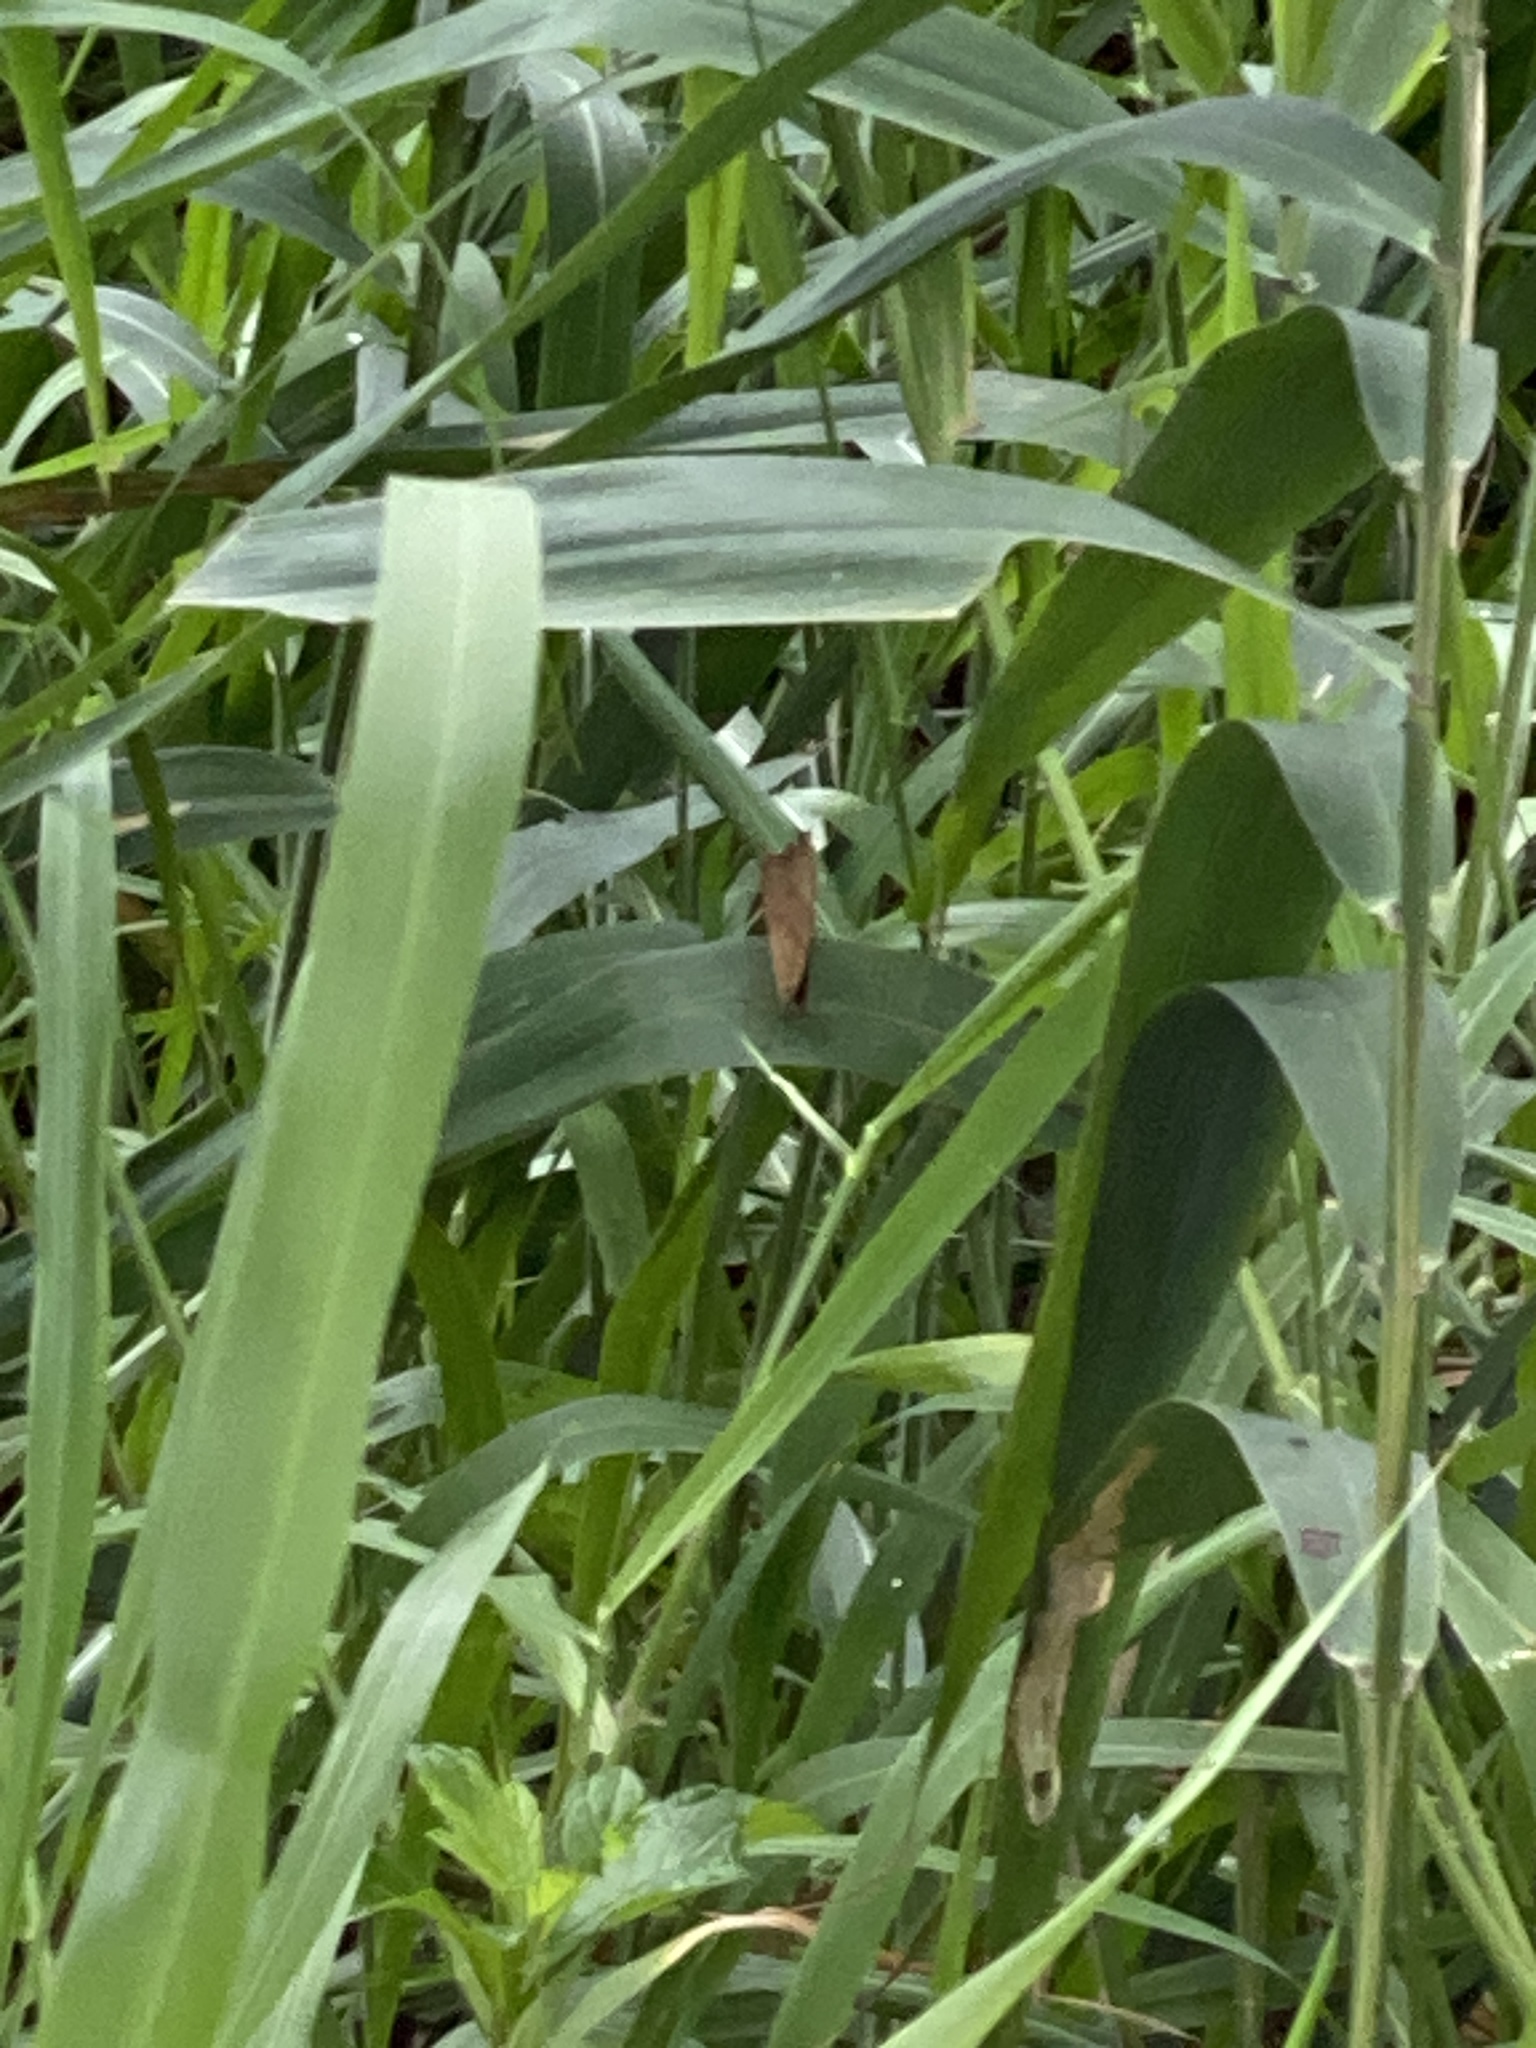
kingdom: Animalia
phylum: Arthropoda
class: Insecta
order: Lepidoptera
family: Nymphalidae
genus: Melanitis
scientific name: Melanitis leda
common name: Twilight brown
